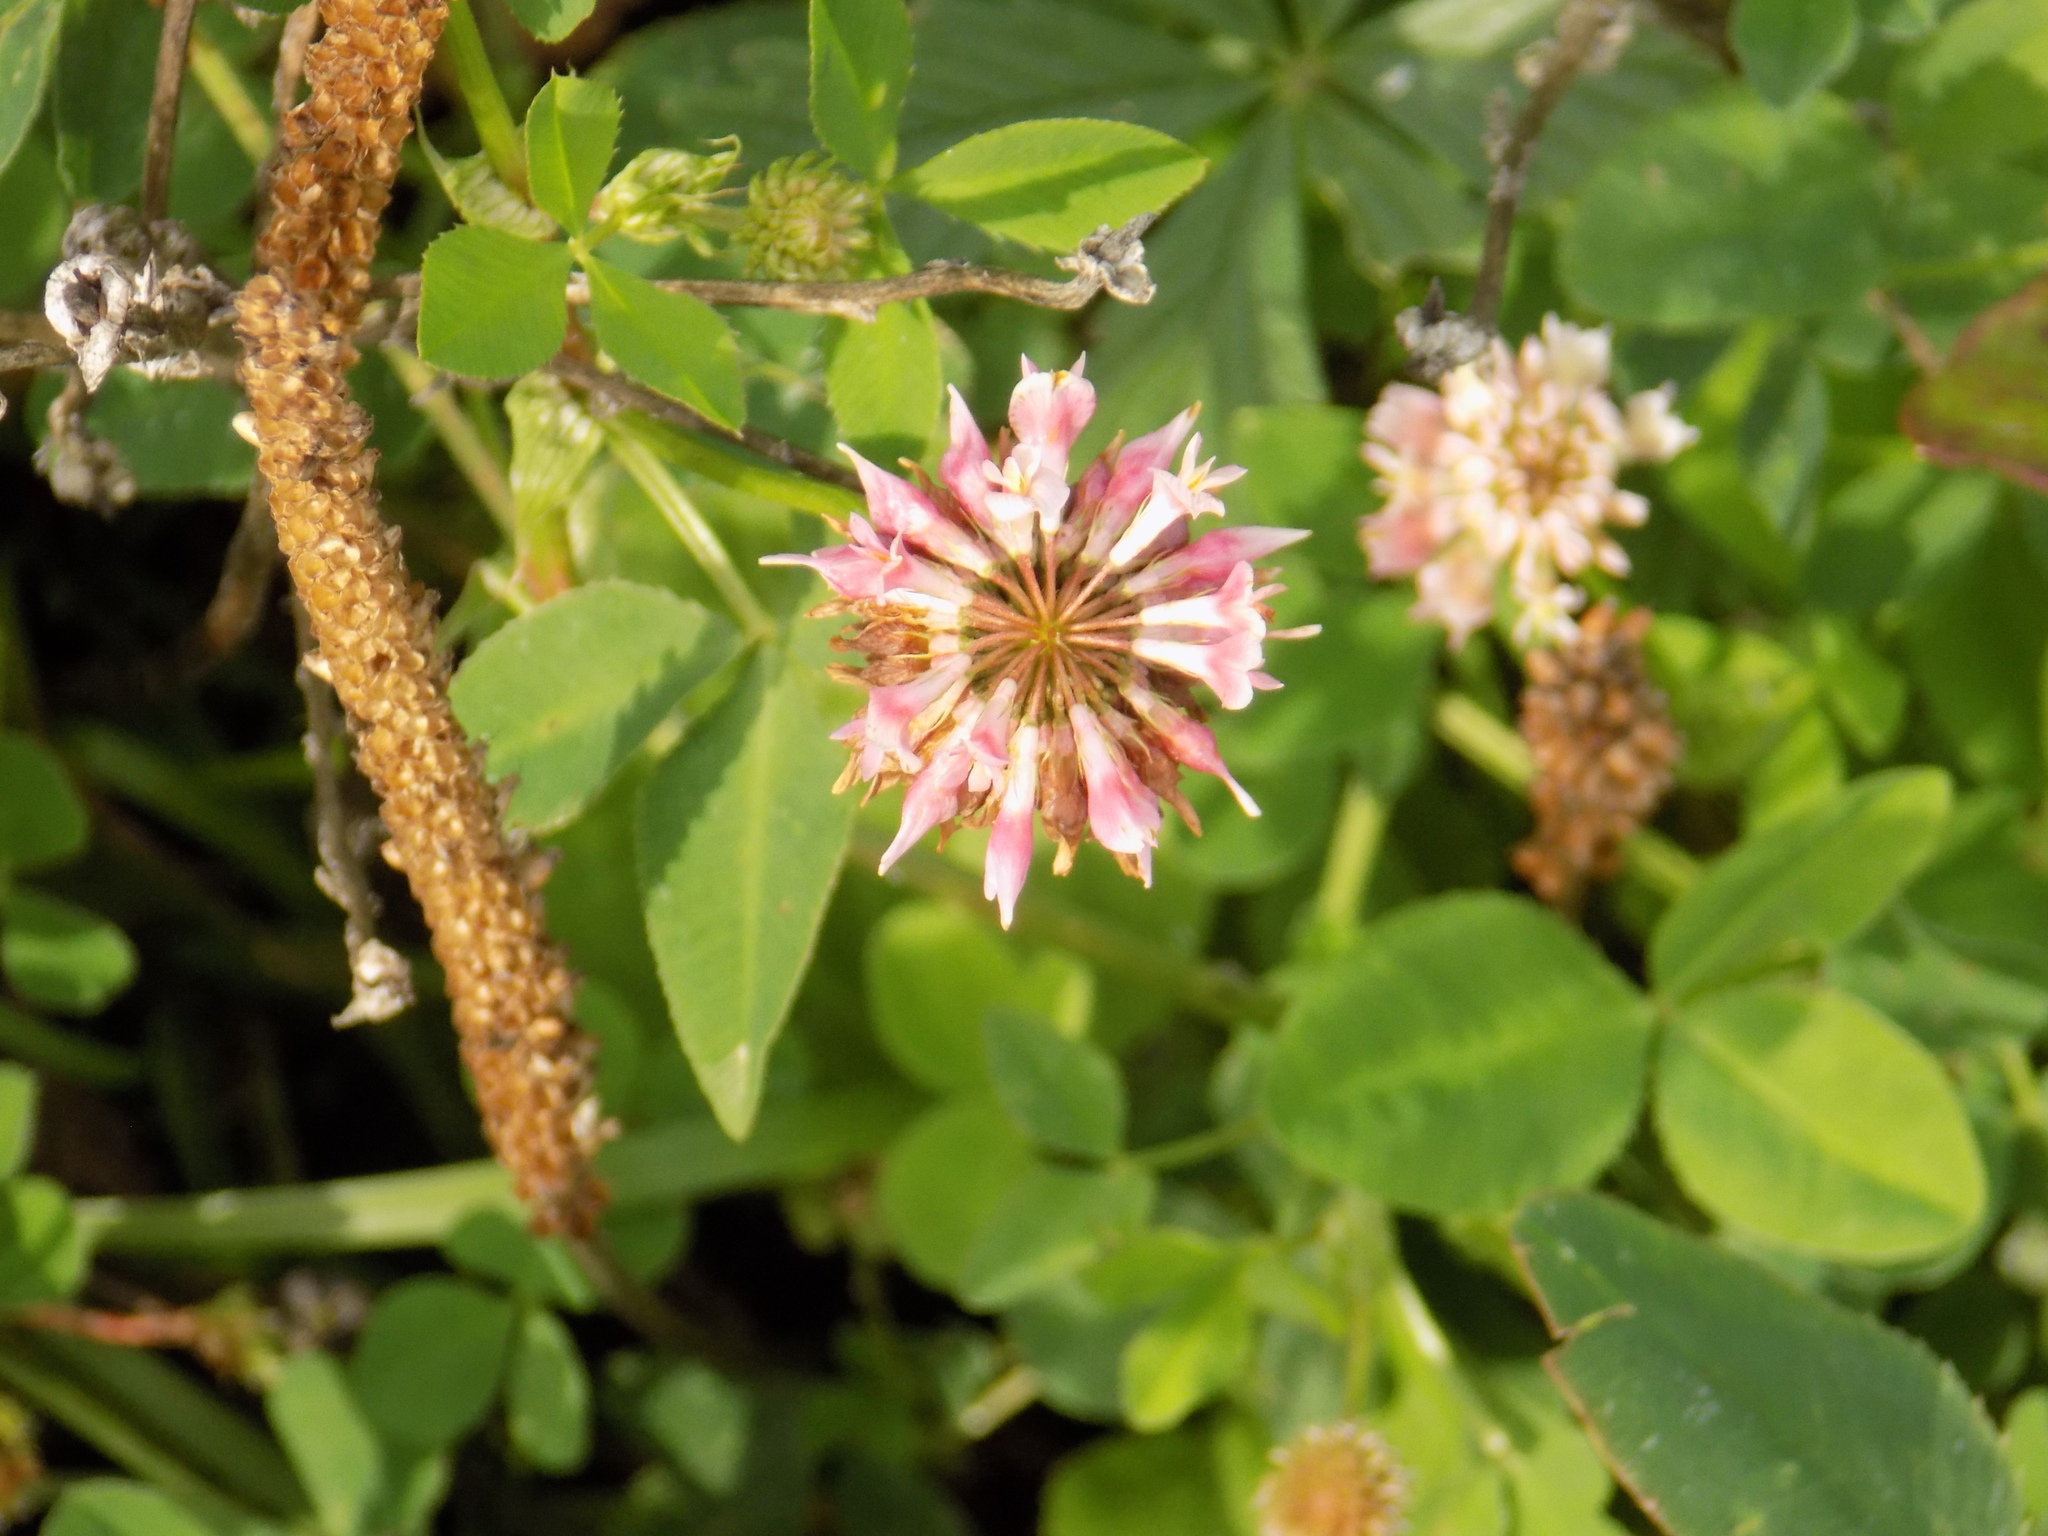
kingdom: Plantae
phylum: Tracheophyta
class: Magnoliopsida
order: Fabales
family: Fabaceae
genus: Trifolium
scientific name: Trifolium hybridum
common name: Alsike clover
